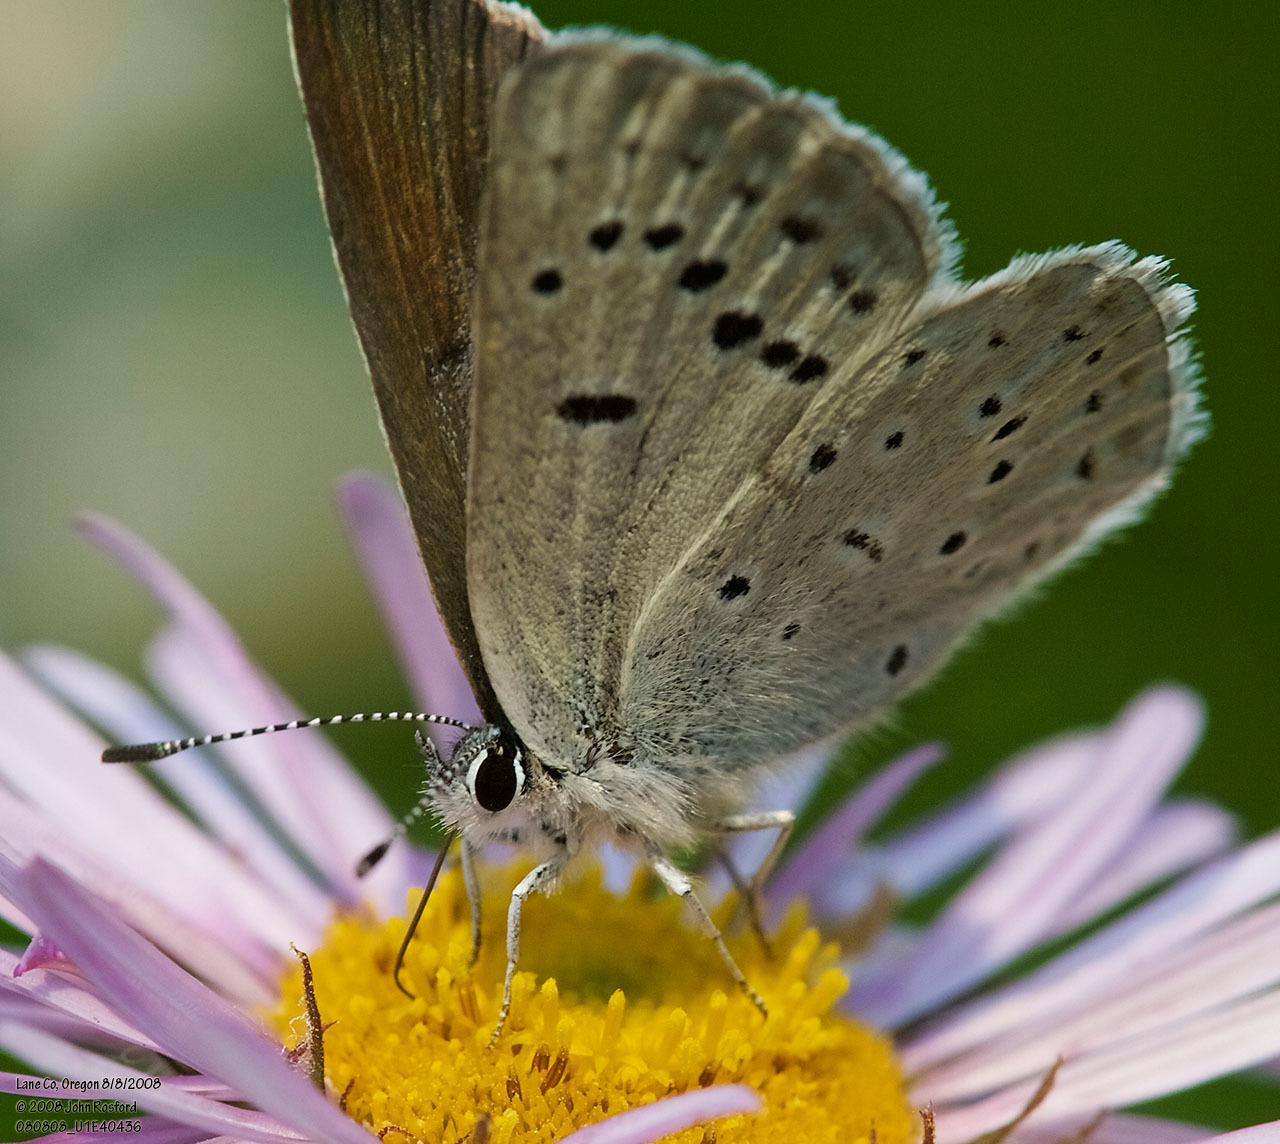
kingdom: Animalia
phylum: Arthropoda
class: Insecta
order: Lepidoptera
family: Lycaenidae
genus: Icaricia
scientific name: Icaricia icarioides
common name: Boisduval's blue
